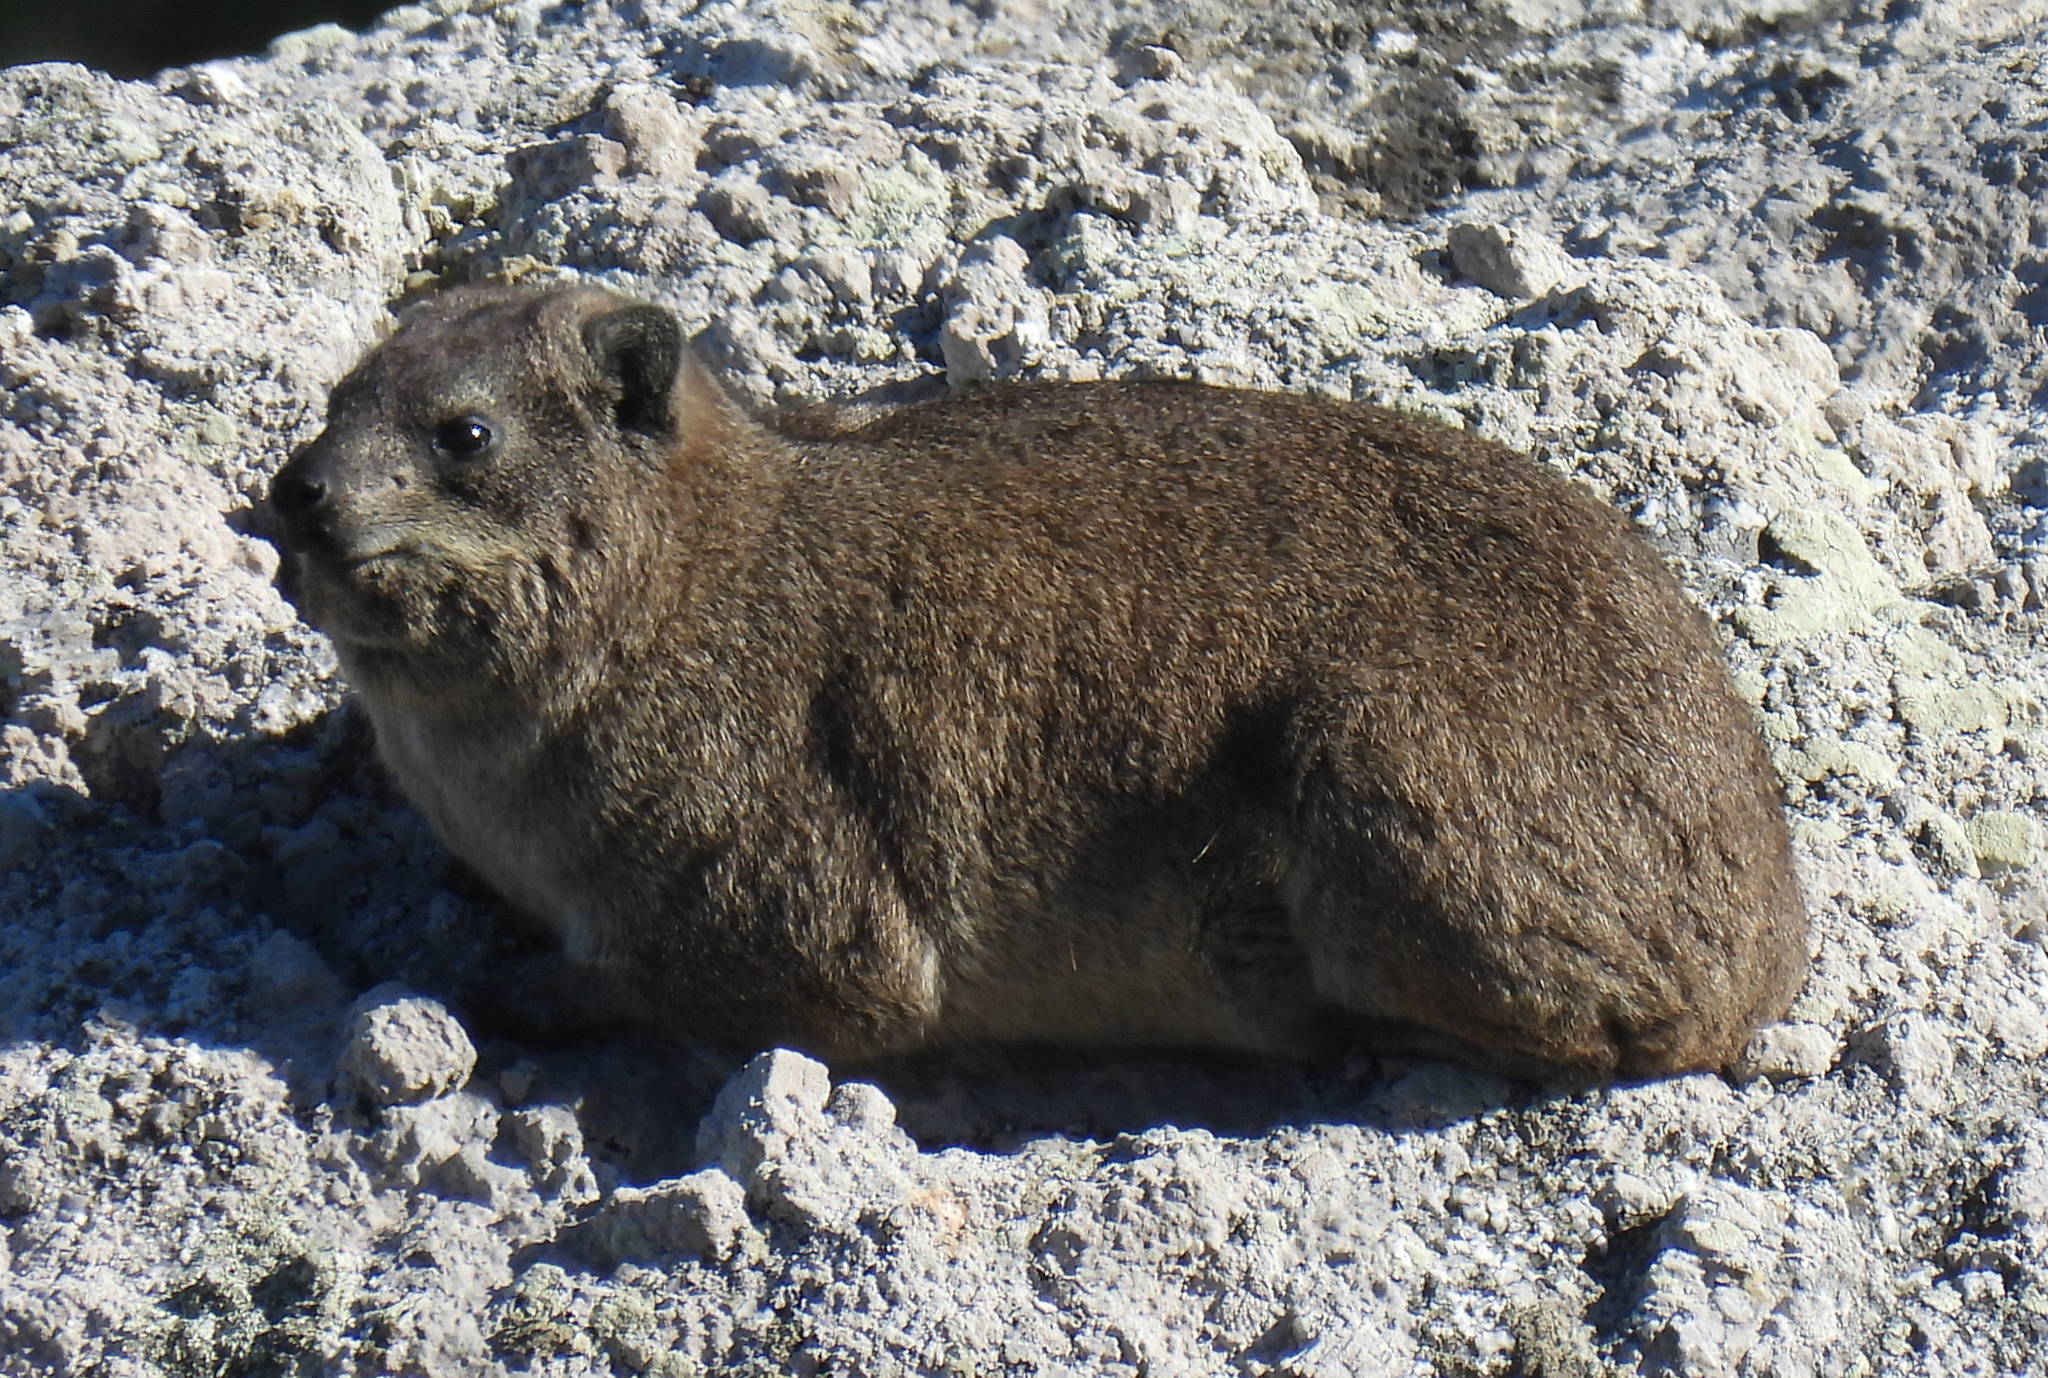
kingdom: Animalia
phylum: Chordata
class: Mammalia
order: Hyracoidea
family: Procaviidae
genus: Procavia
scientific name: Procavia capensis
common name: Rock hyrax
